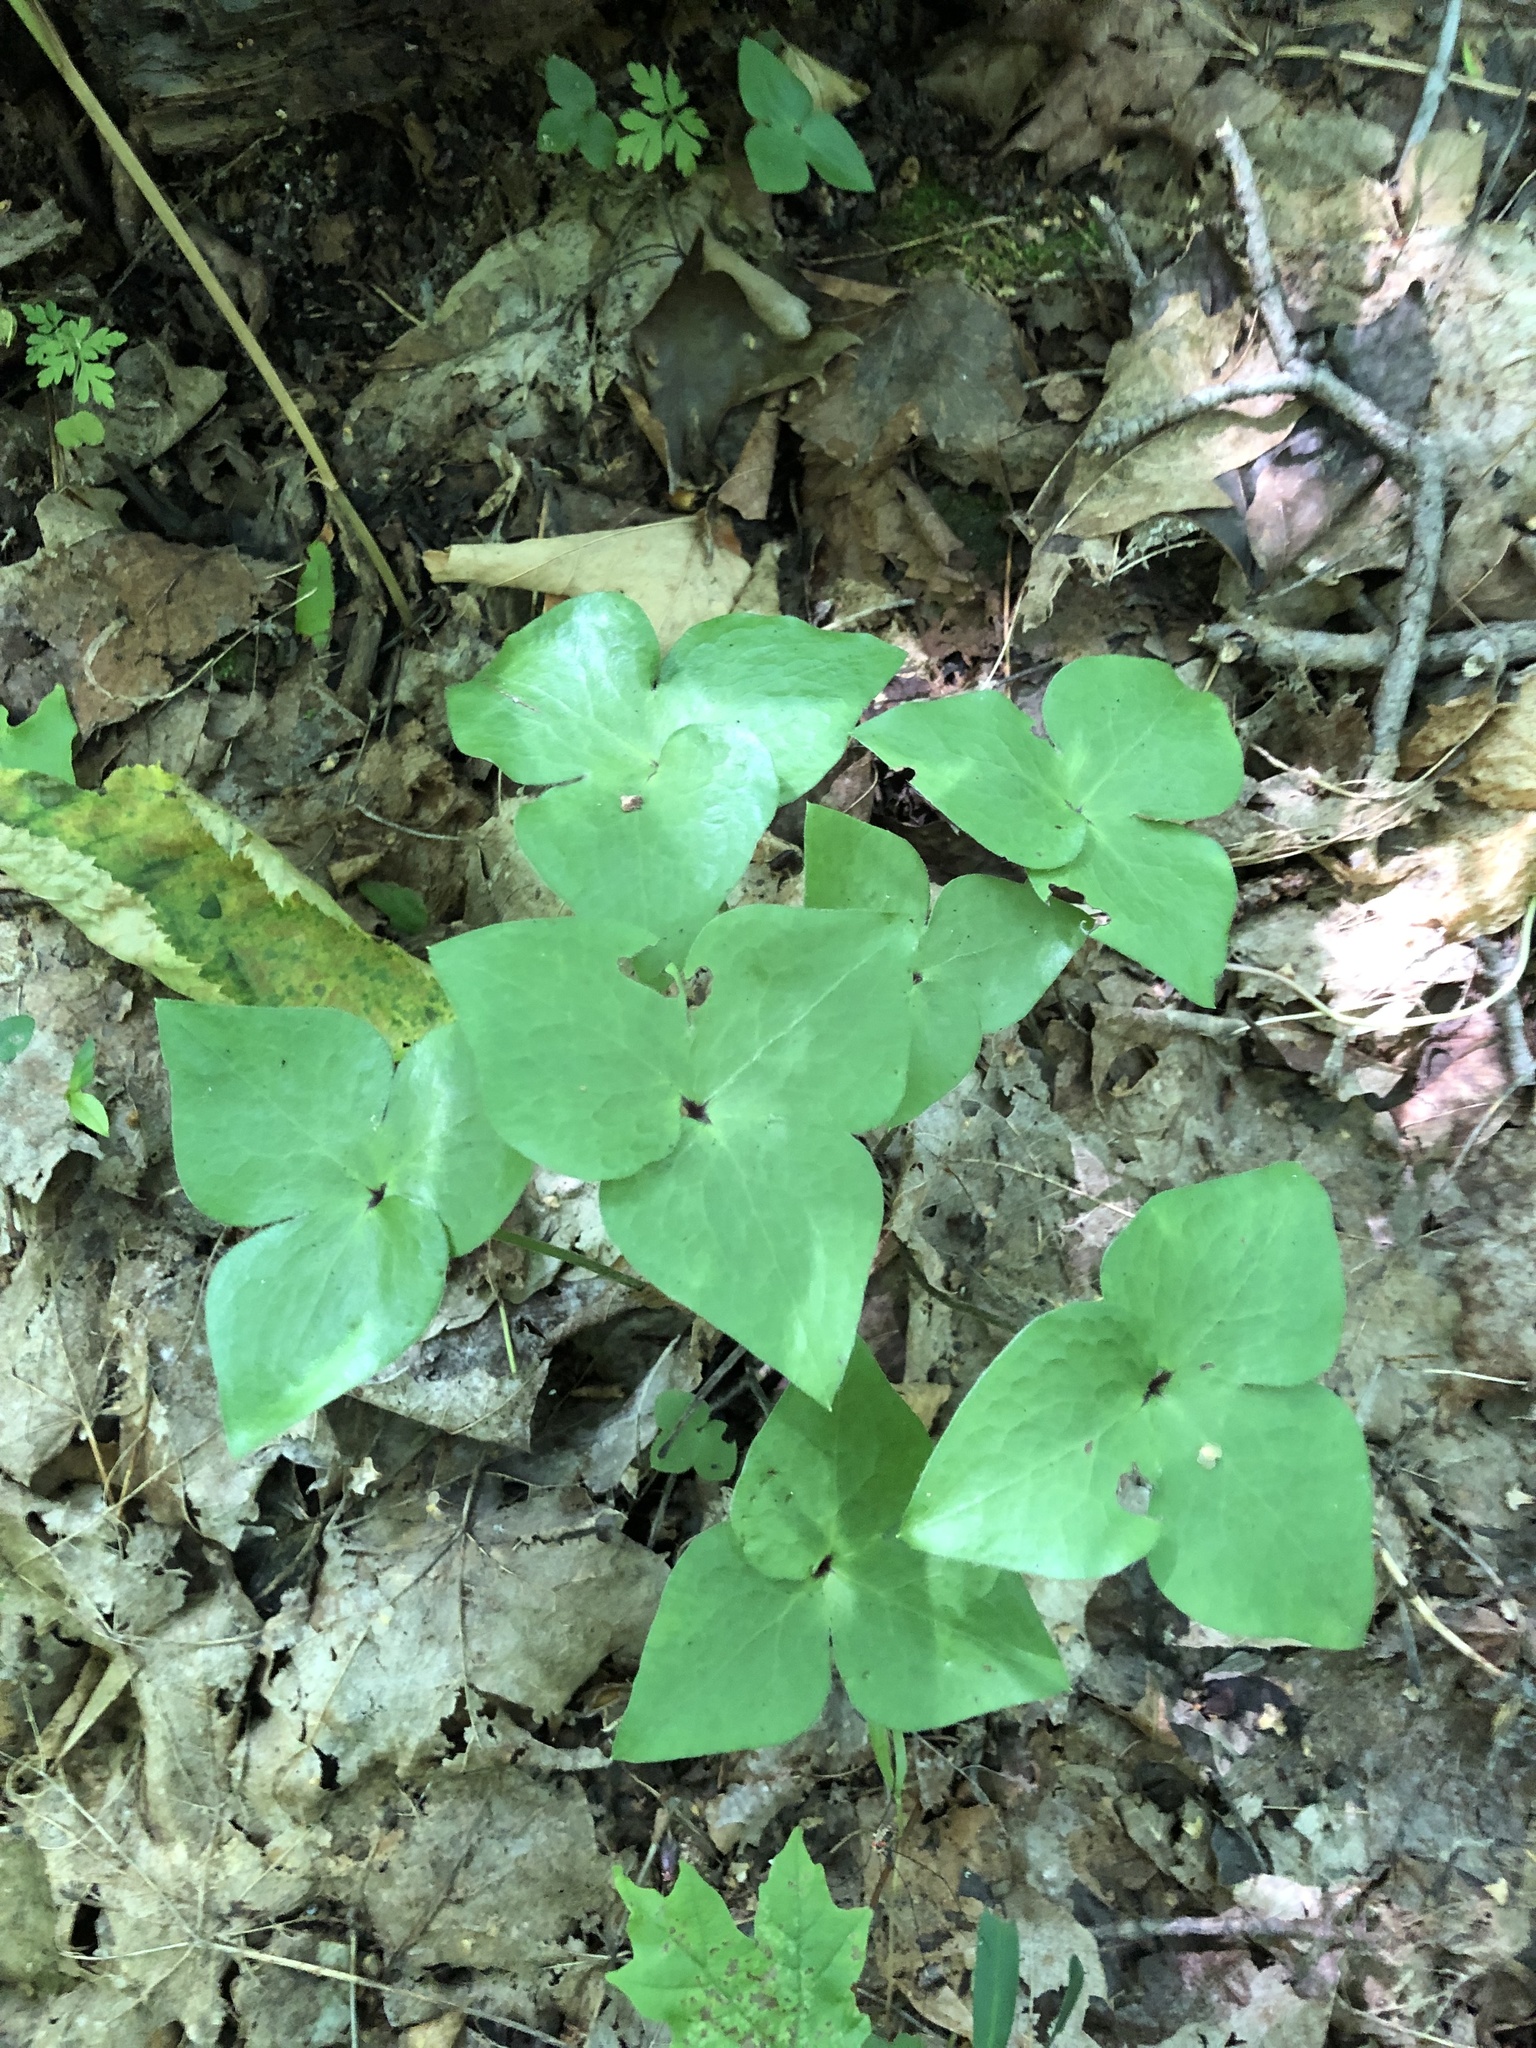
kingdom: Plantae
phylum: Tracheophyta
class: Magnoliopsida
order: Ranunculales
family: Ranunculaceae
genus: Hepatica
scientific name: Hepatica acutiloba
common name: Sharp-lobed hepatica
